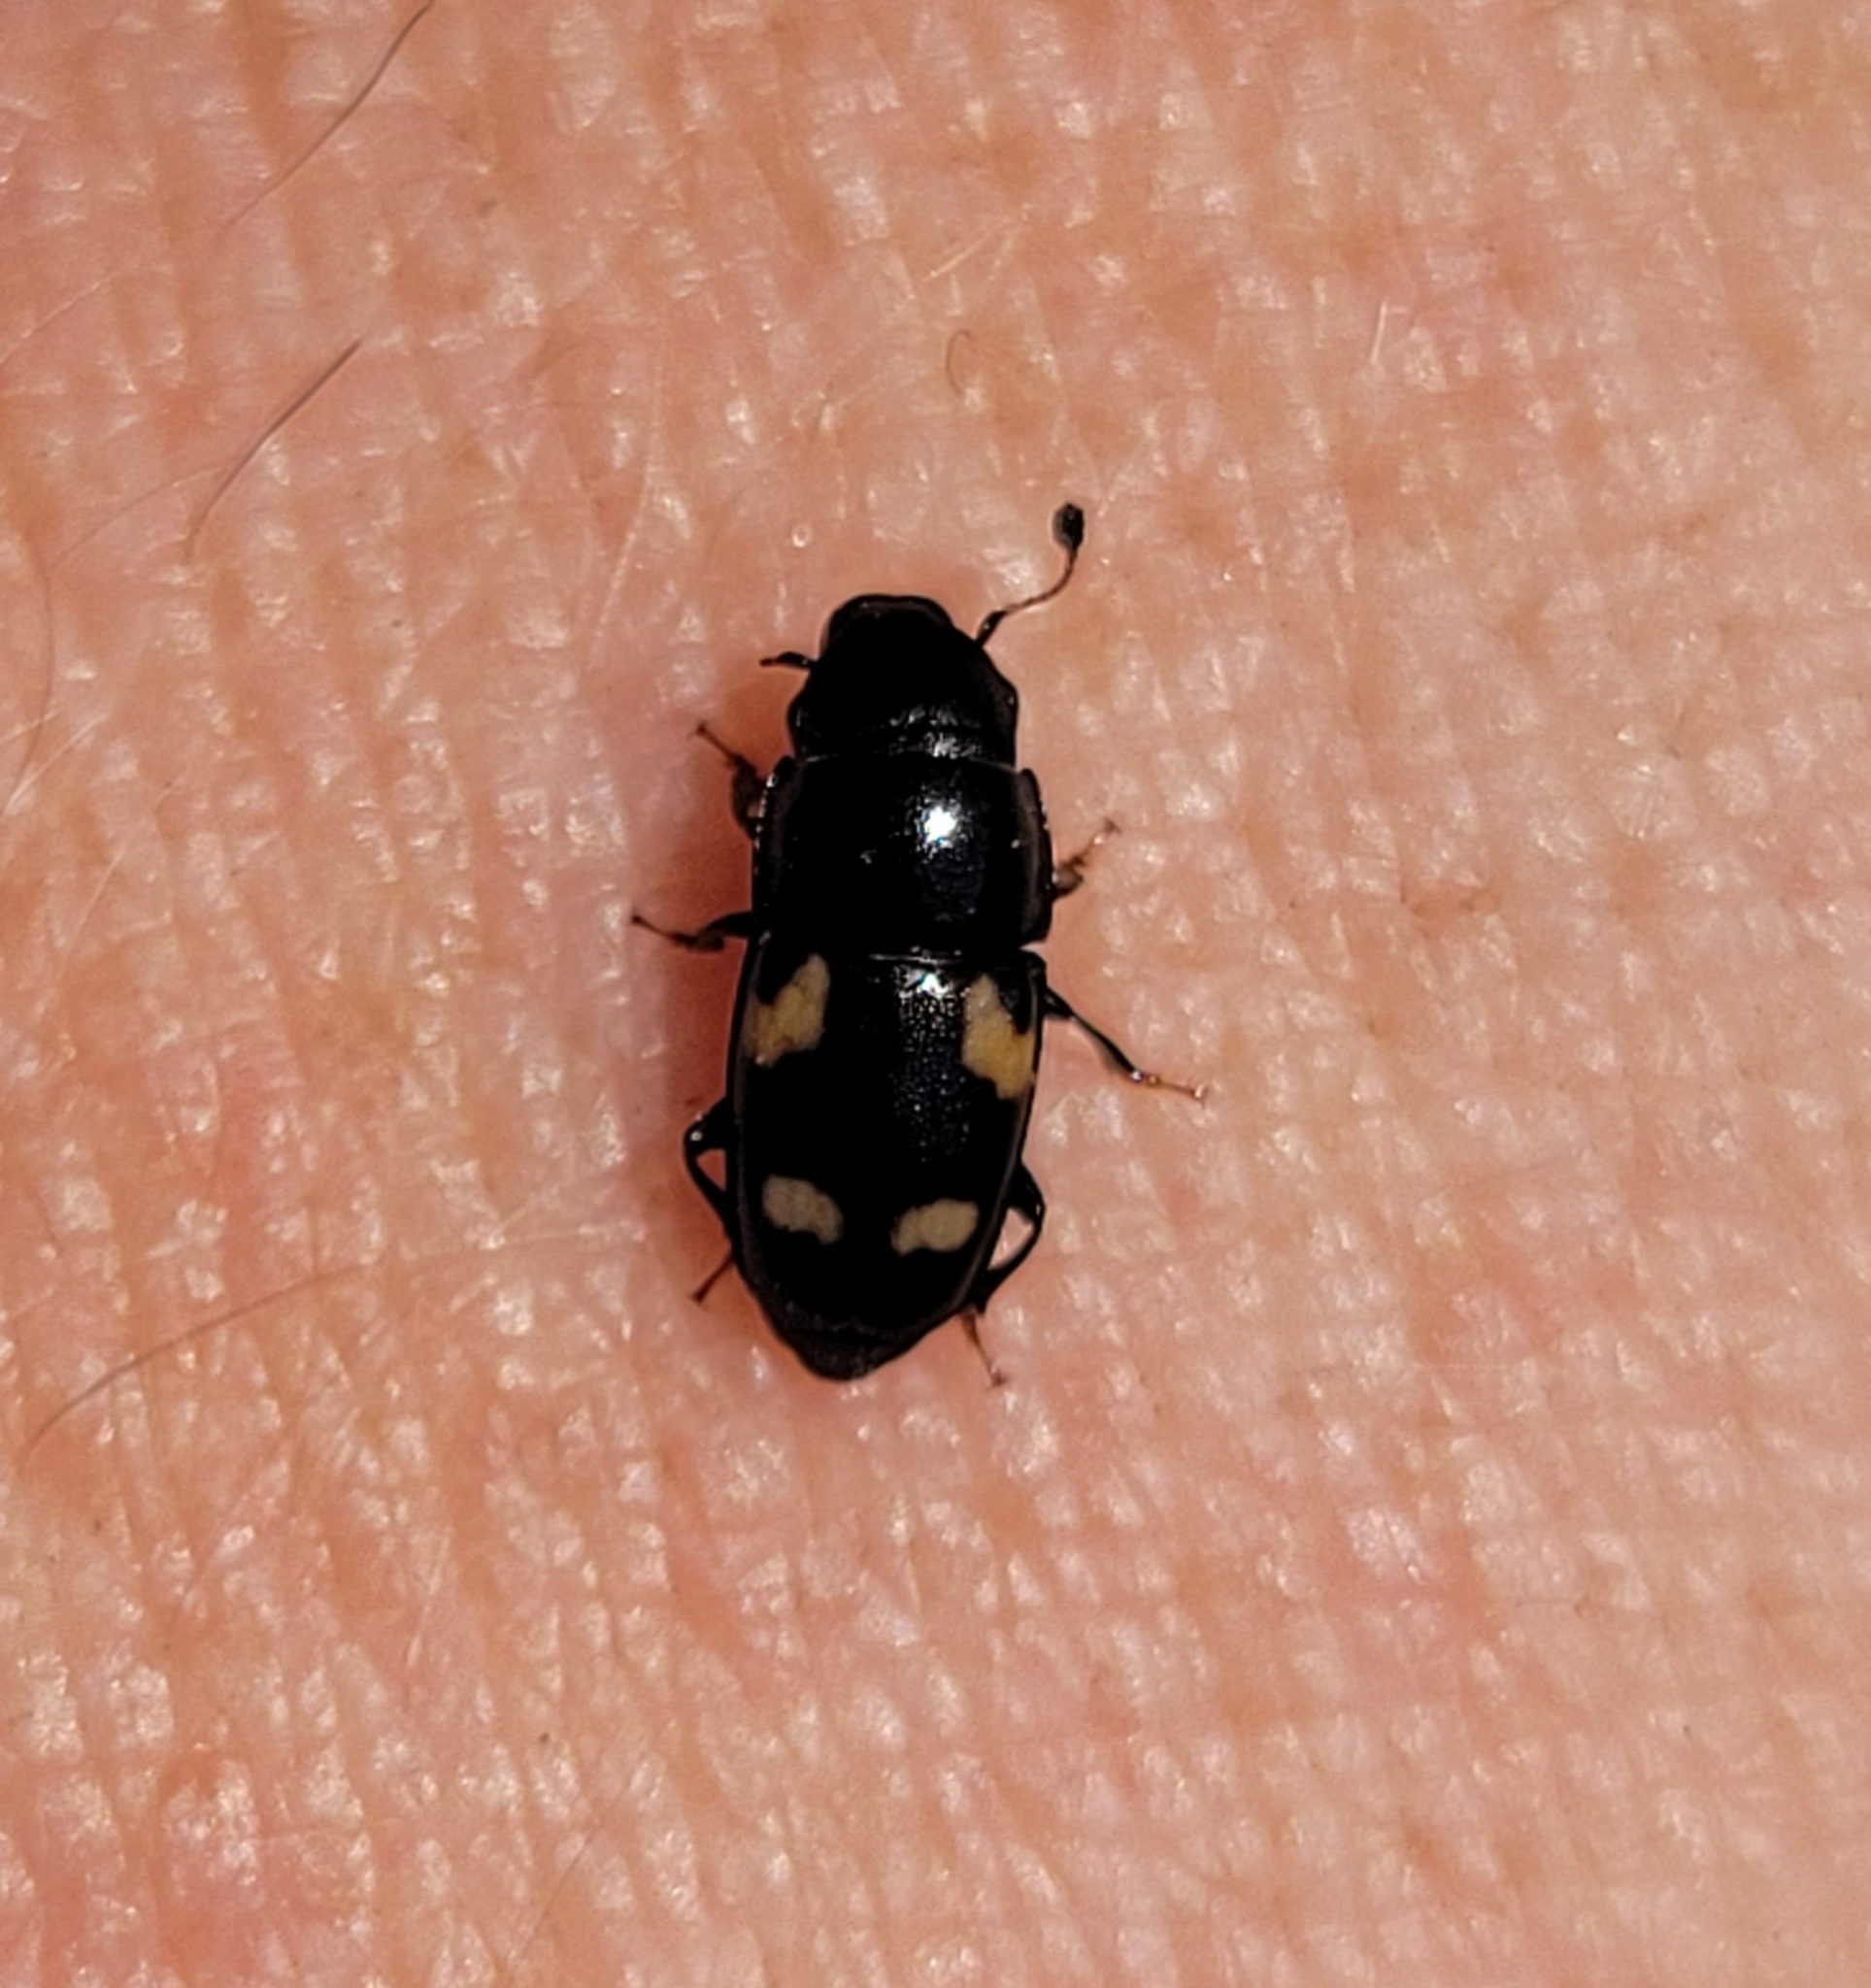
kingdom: Animalia
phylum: Arthropoda
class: Insecta
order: Coleoptera
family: Nitidulidae
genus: Glischrochilus
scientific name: Glischrochilus quadrisignatus
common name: Picnic beetle
